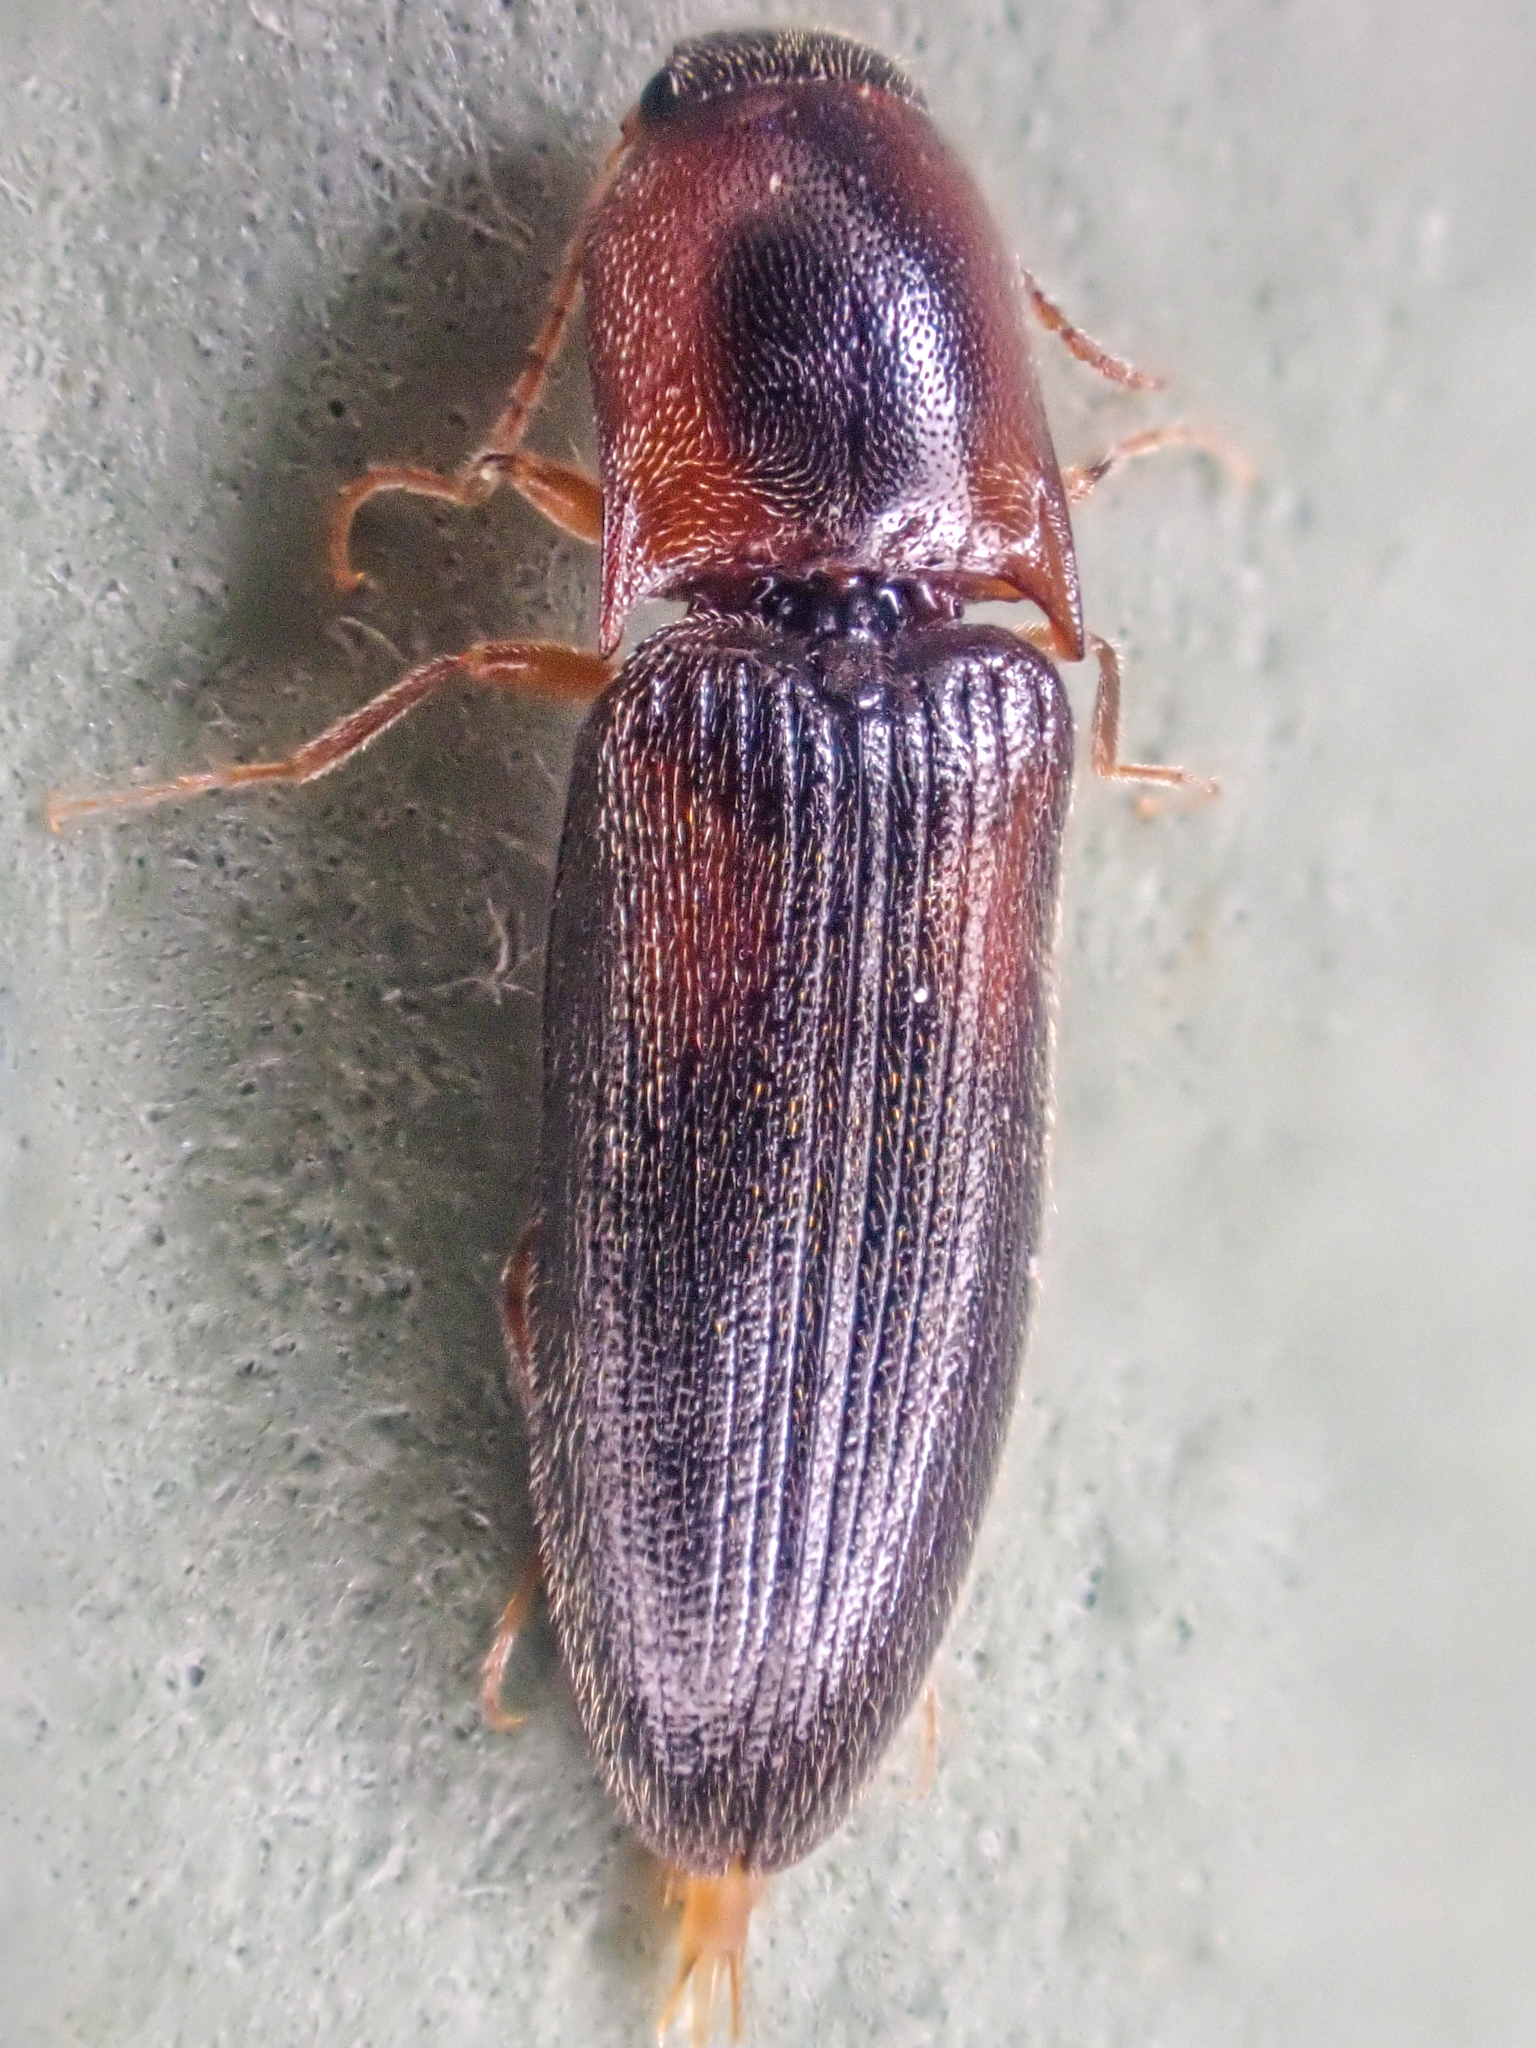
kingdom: Animalia
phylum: Arthropoda
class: Insecta
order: Coleoptera
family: Elateridae
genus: Idolus
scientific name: Idolus debilis
